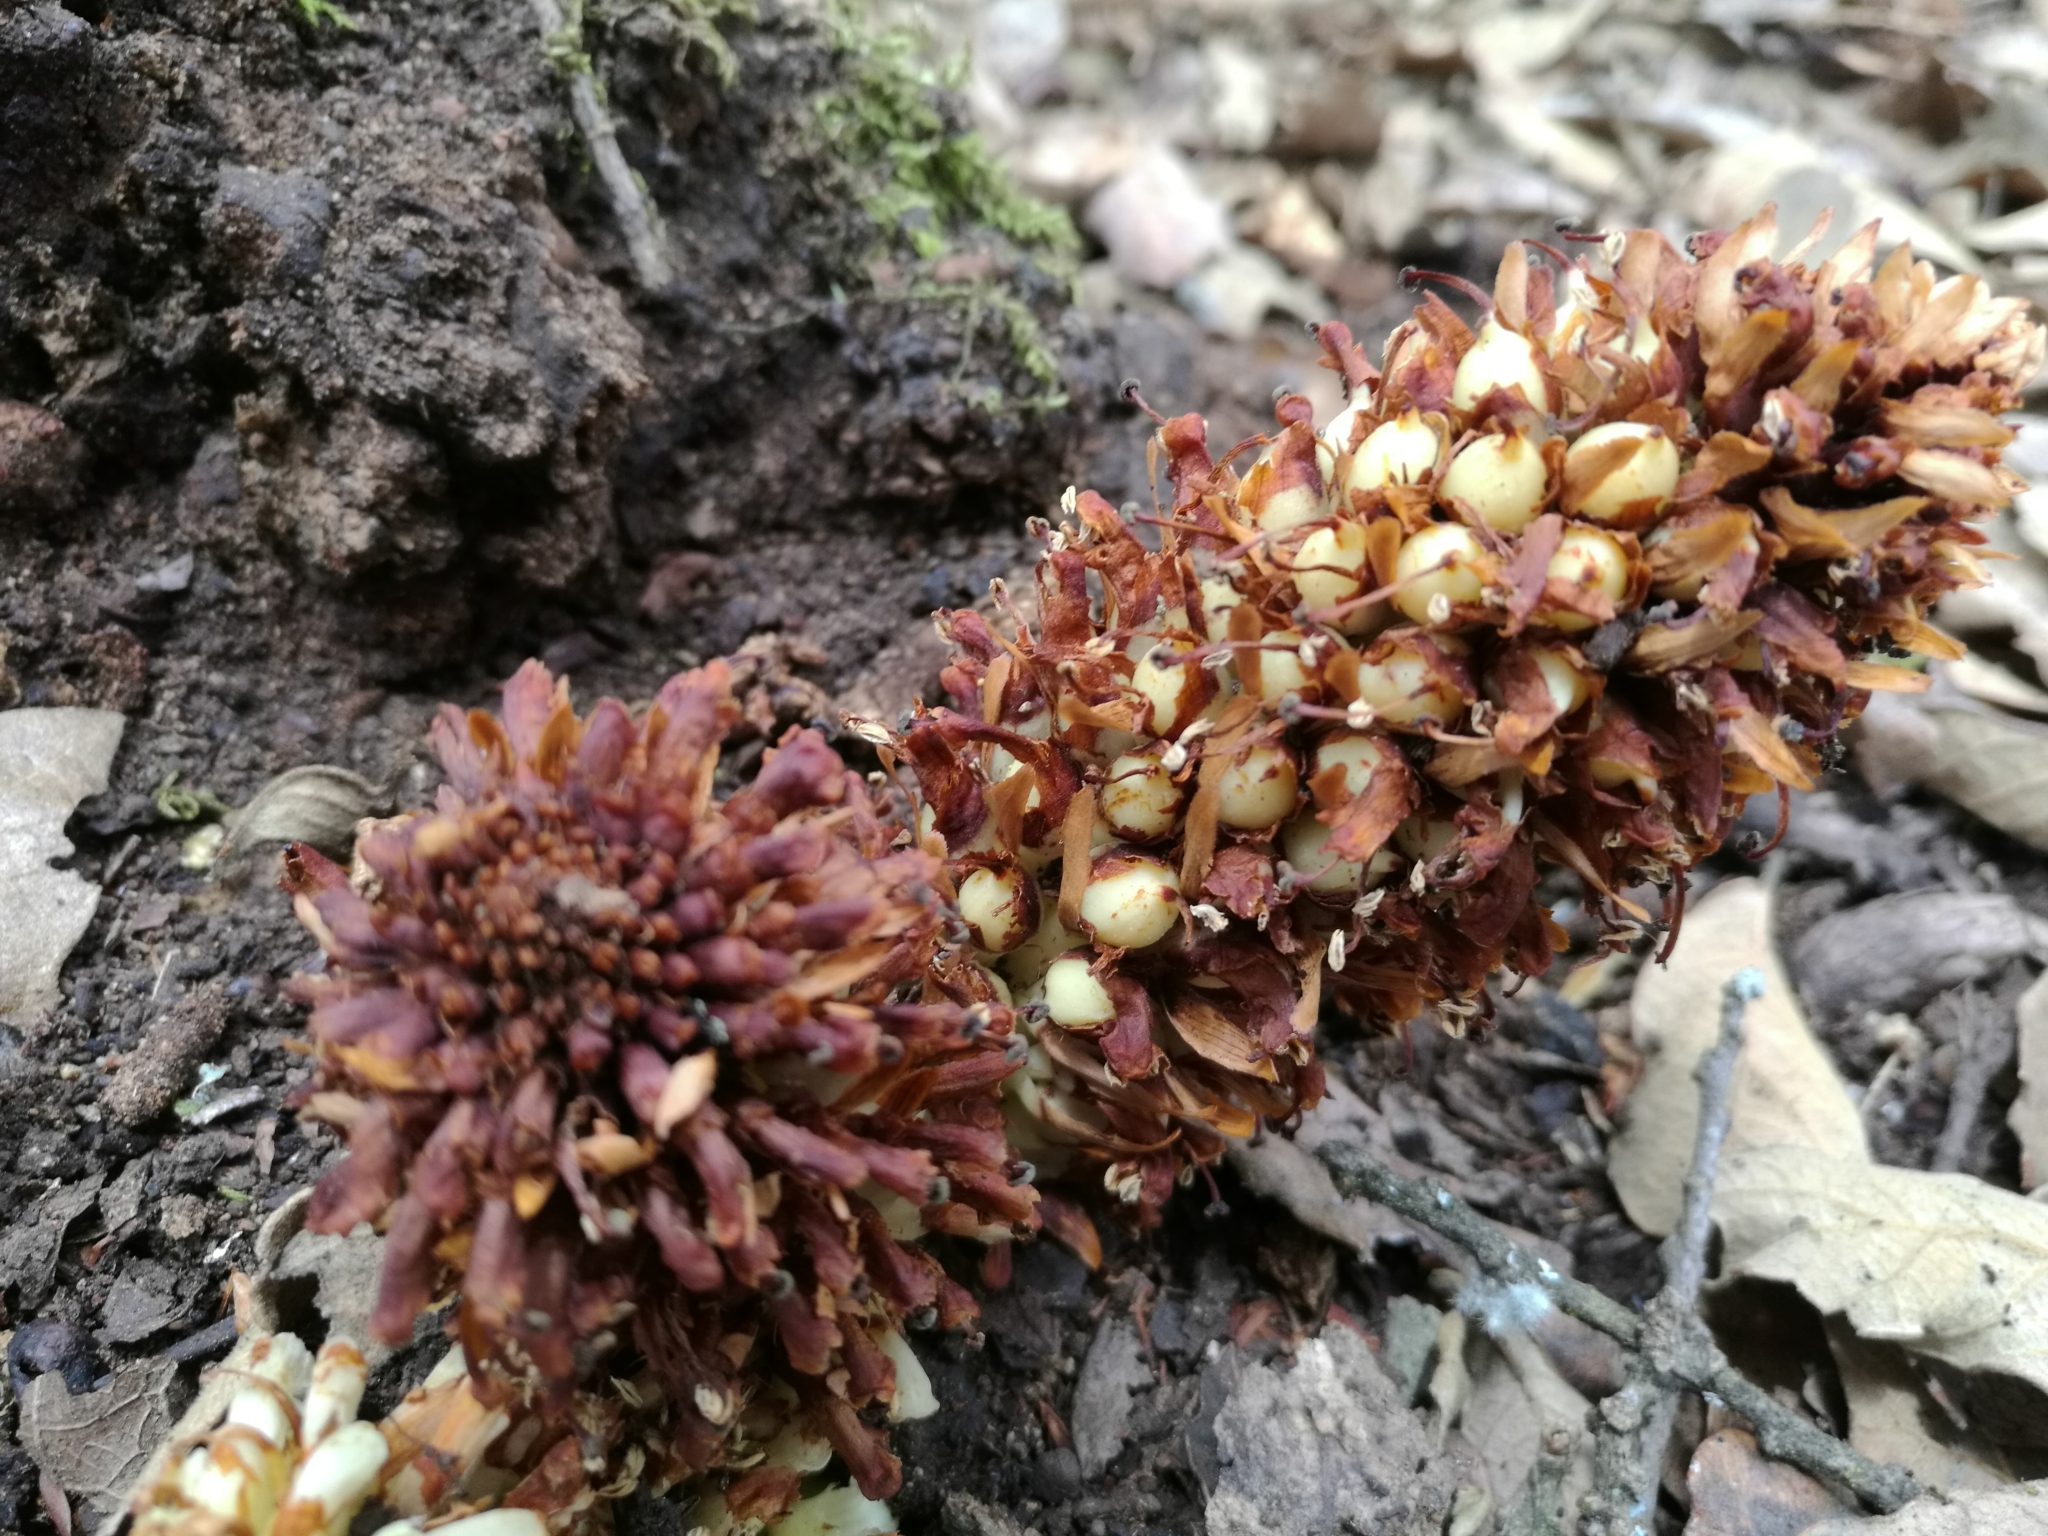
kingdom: Plantae
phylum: Tracheophyta
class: Magnoliopsida
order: Lamiales
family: Orobanchaceae
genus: Conopholis
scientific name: Conopholis alpina
